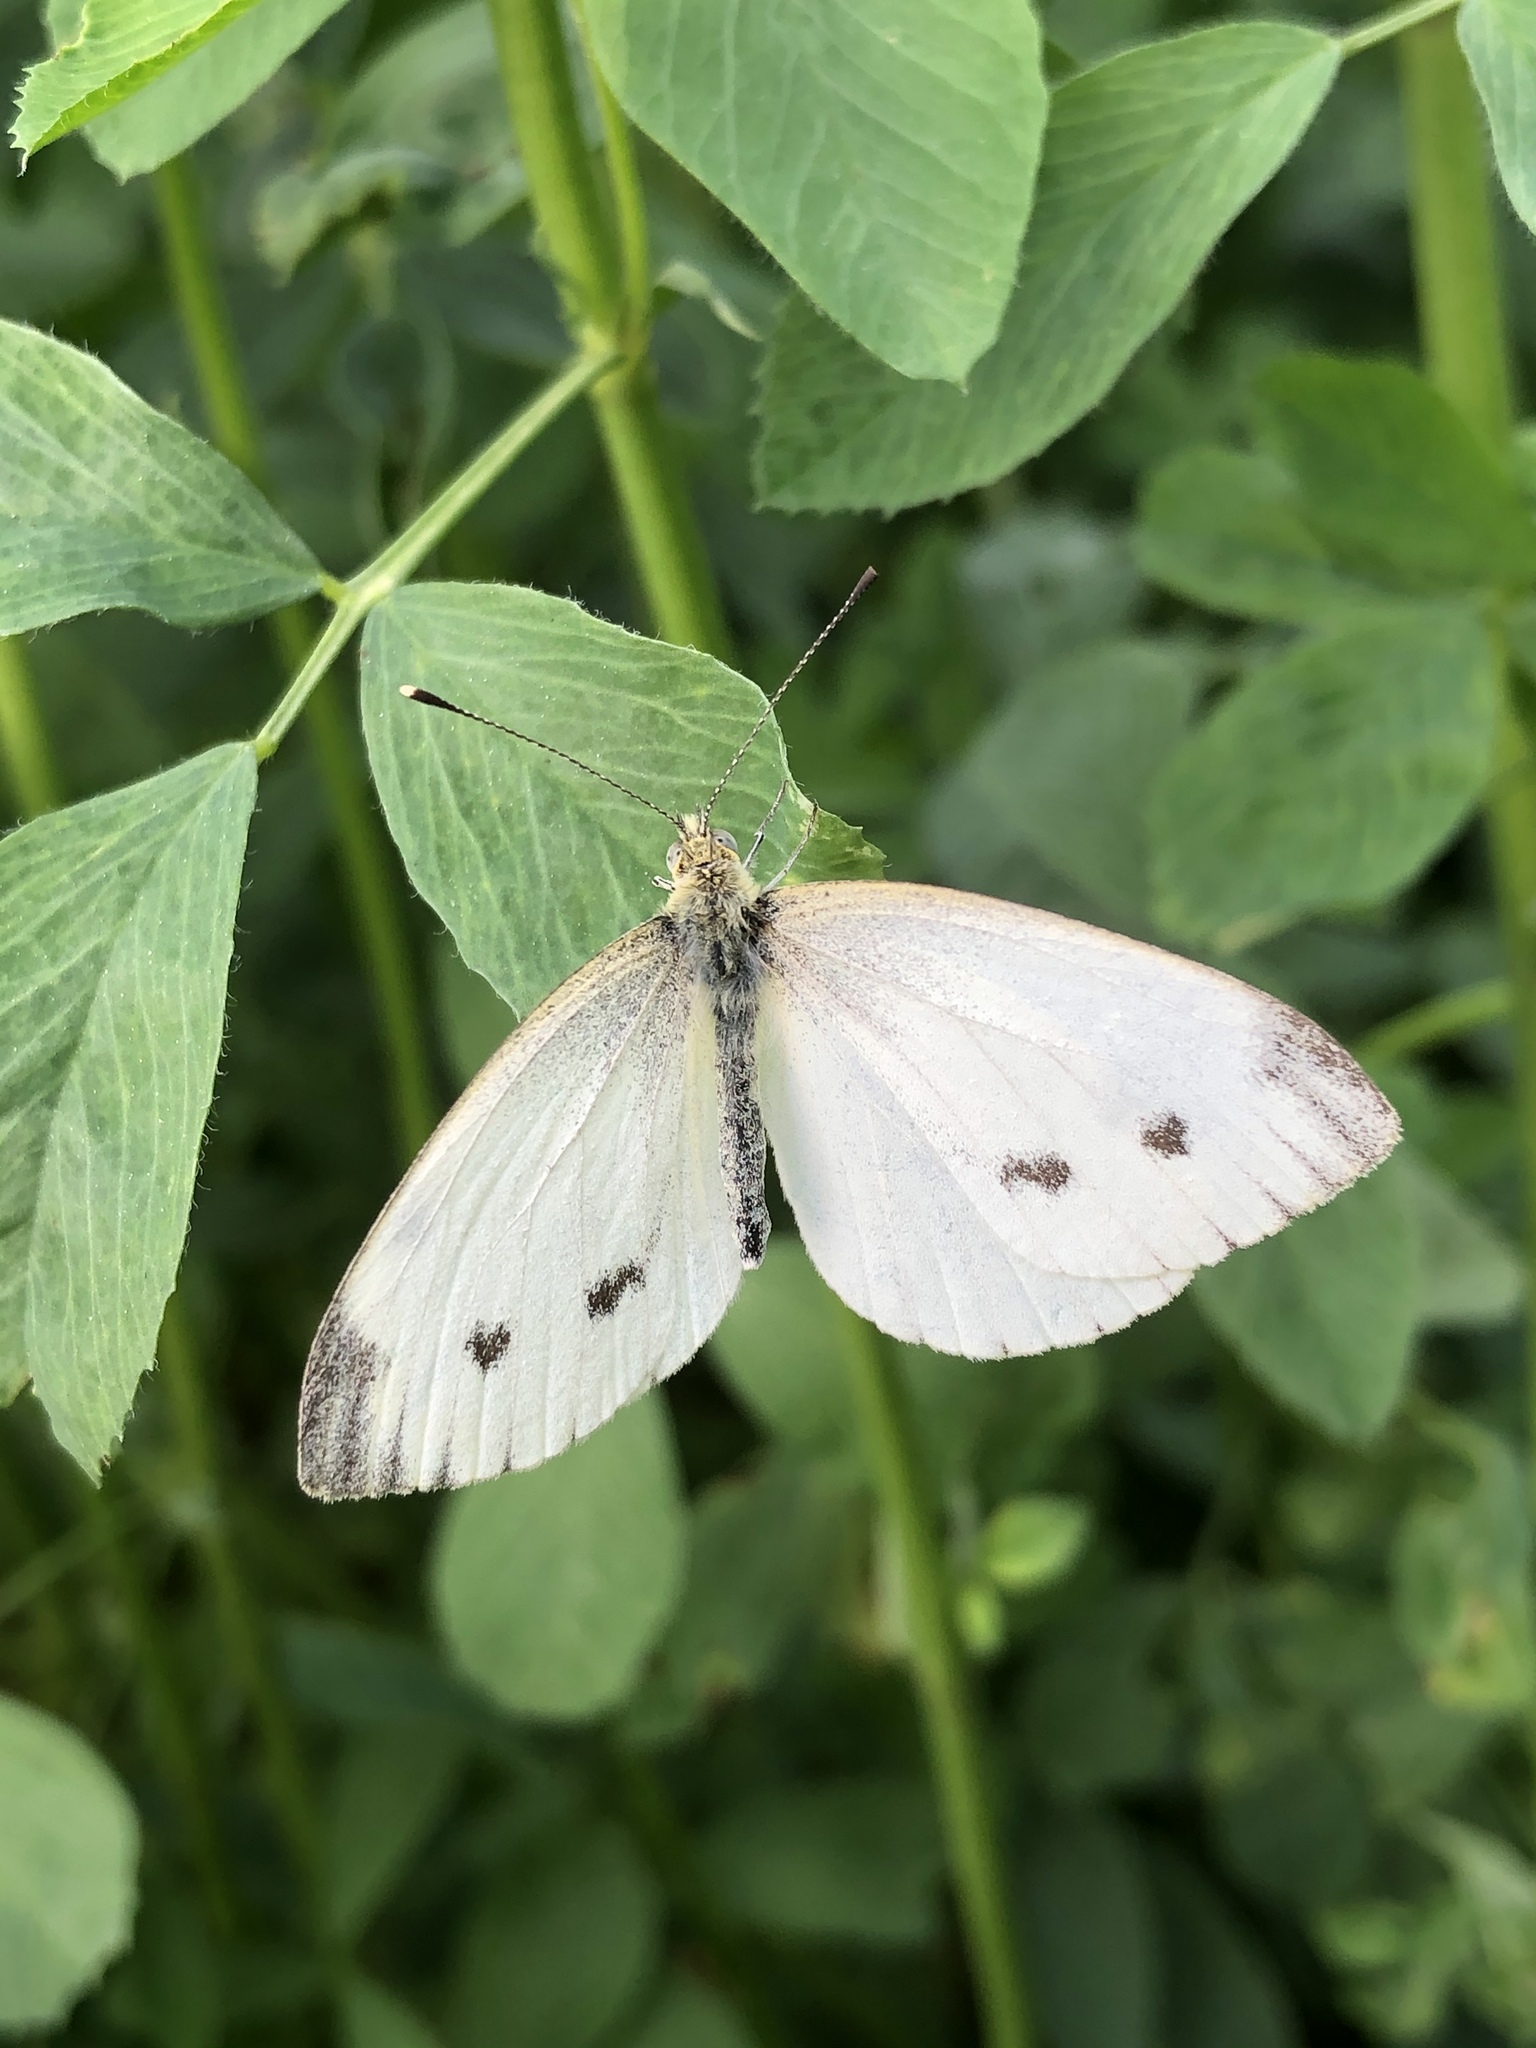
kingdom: Animalia
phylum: Arthropoda
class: Insecta
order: Lepidoptera
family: Pieridae
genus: Pieris
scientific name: Pieris napi
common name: Green-veined white
